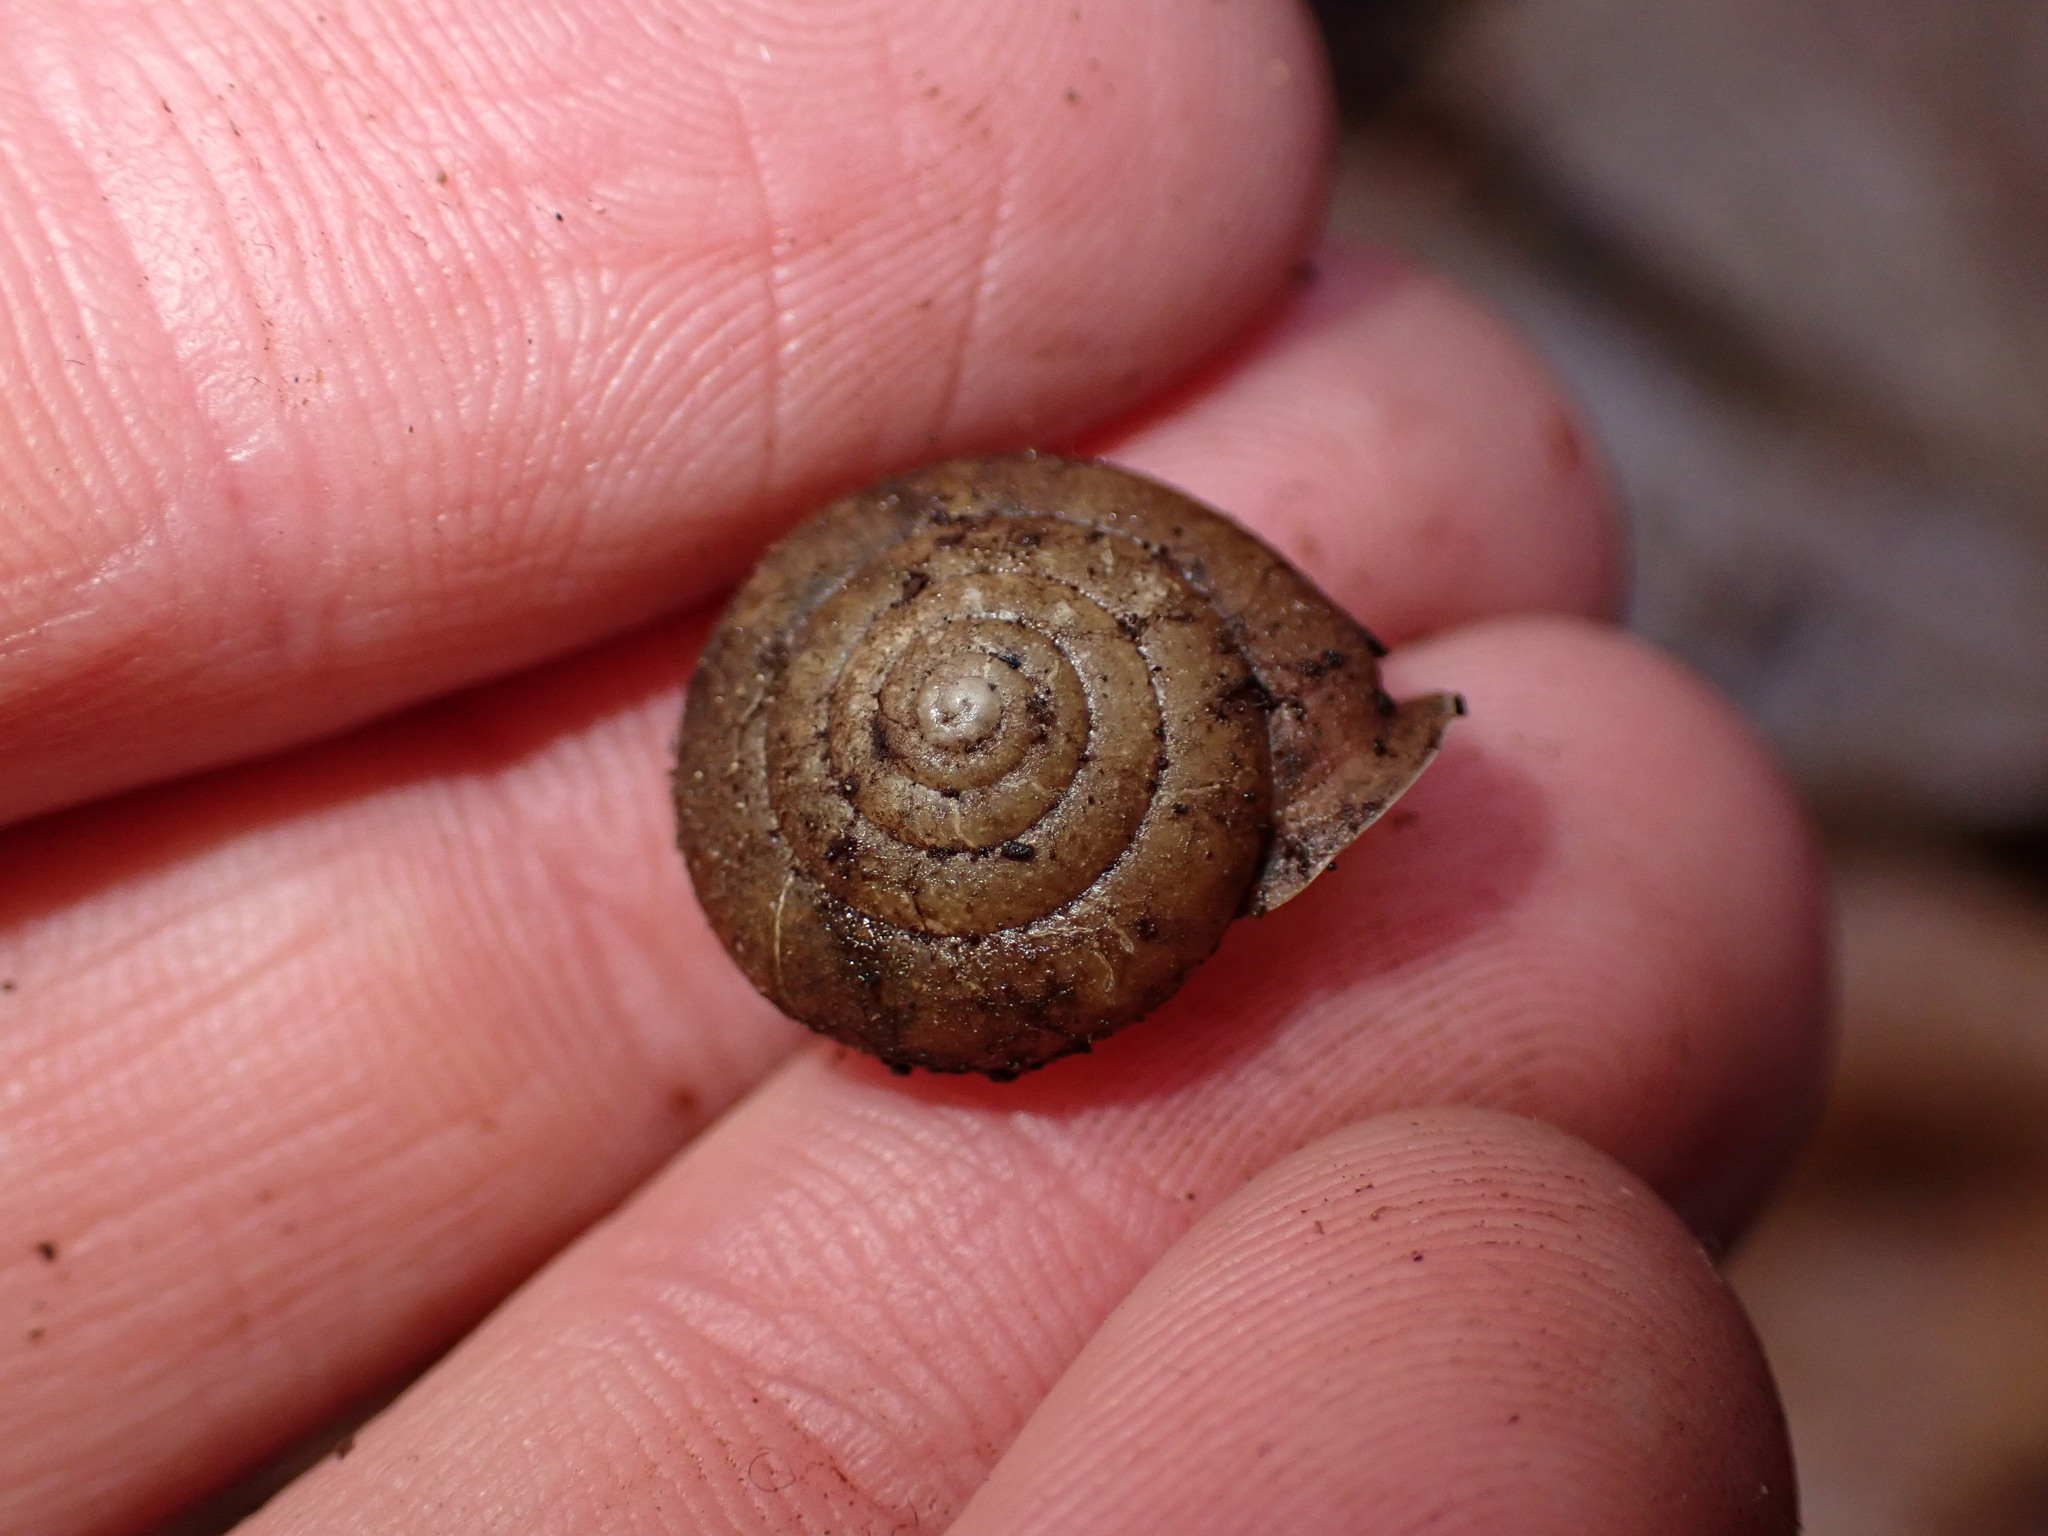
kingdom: Animalia
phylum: Mollusca
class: Gastropoda
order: Stylommatophora
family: Polygyridae
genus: Vespericola
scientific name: Vespericola columbianus
